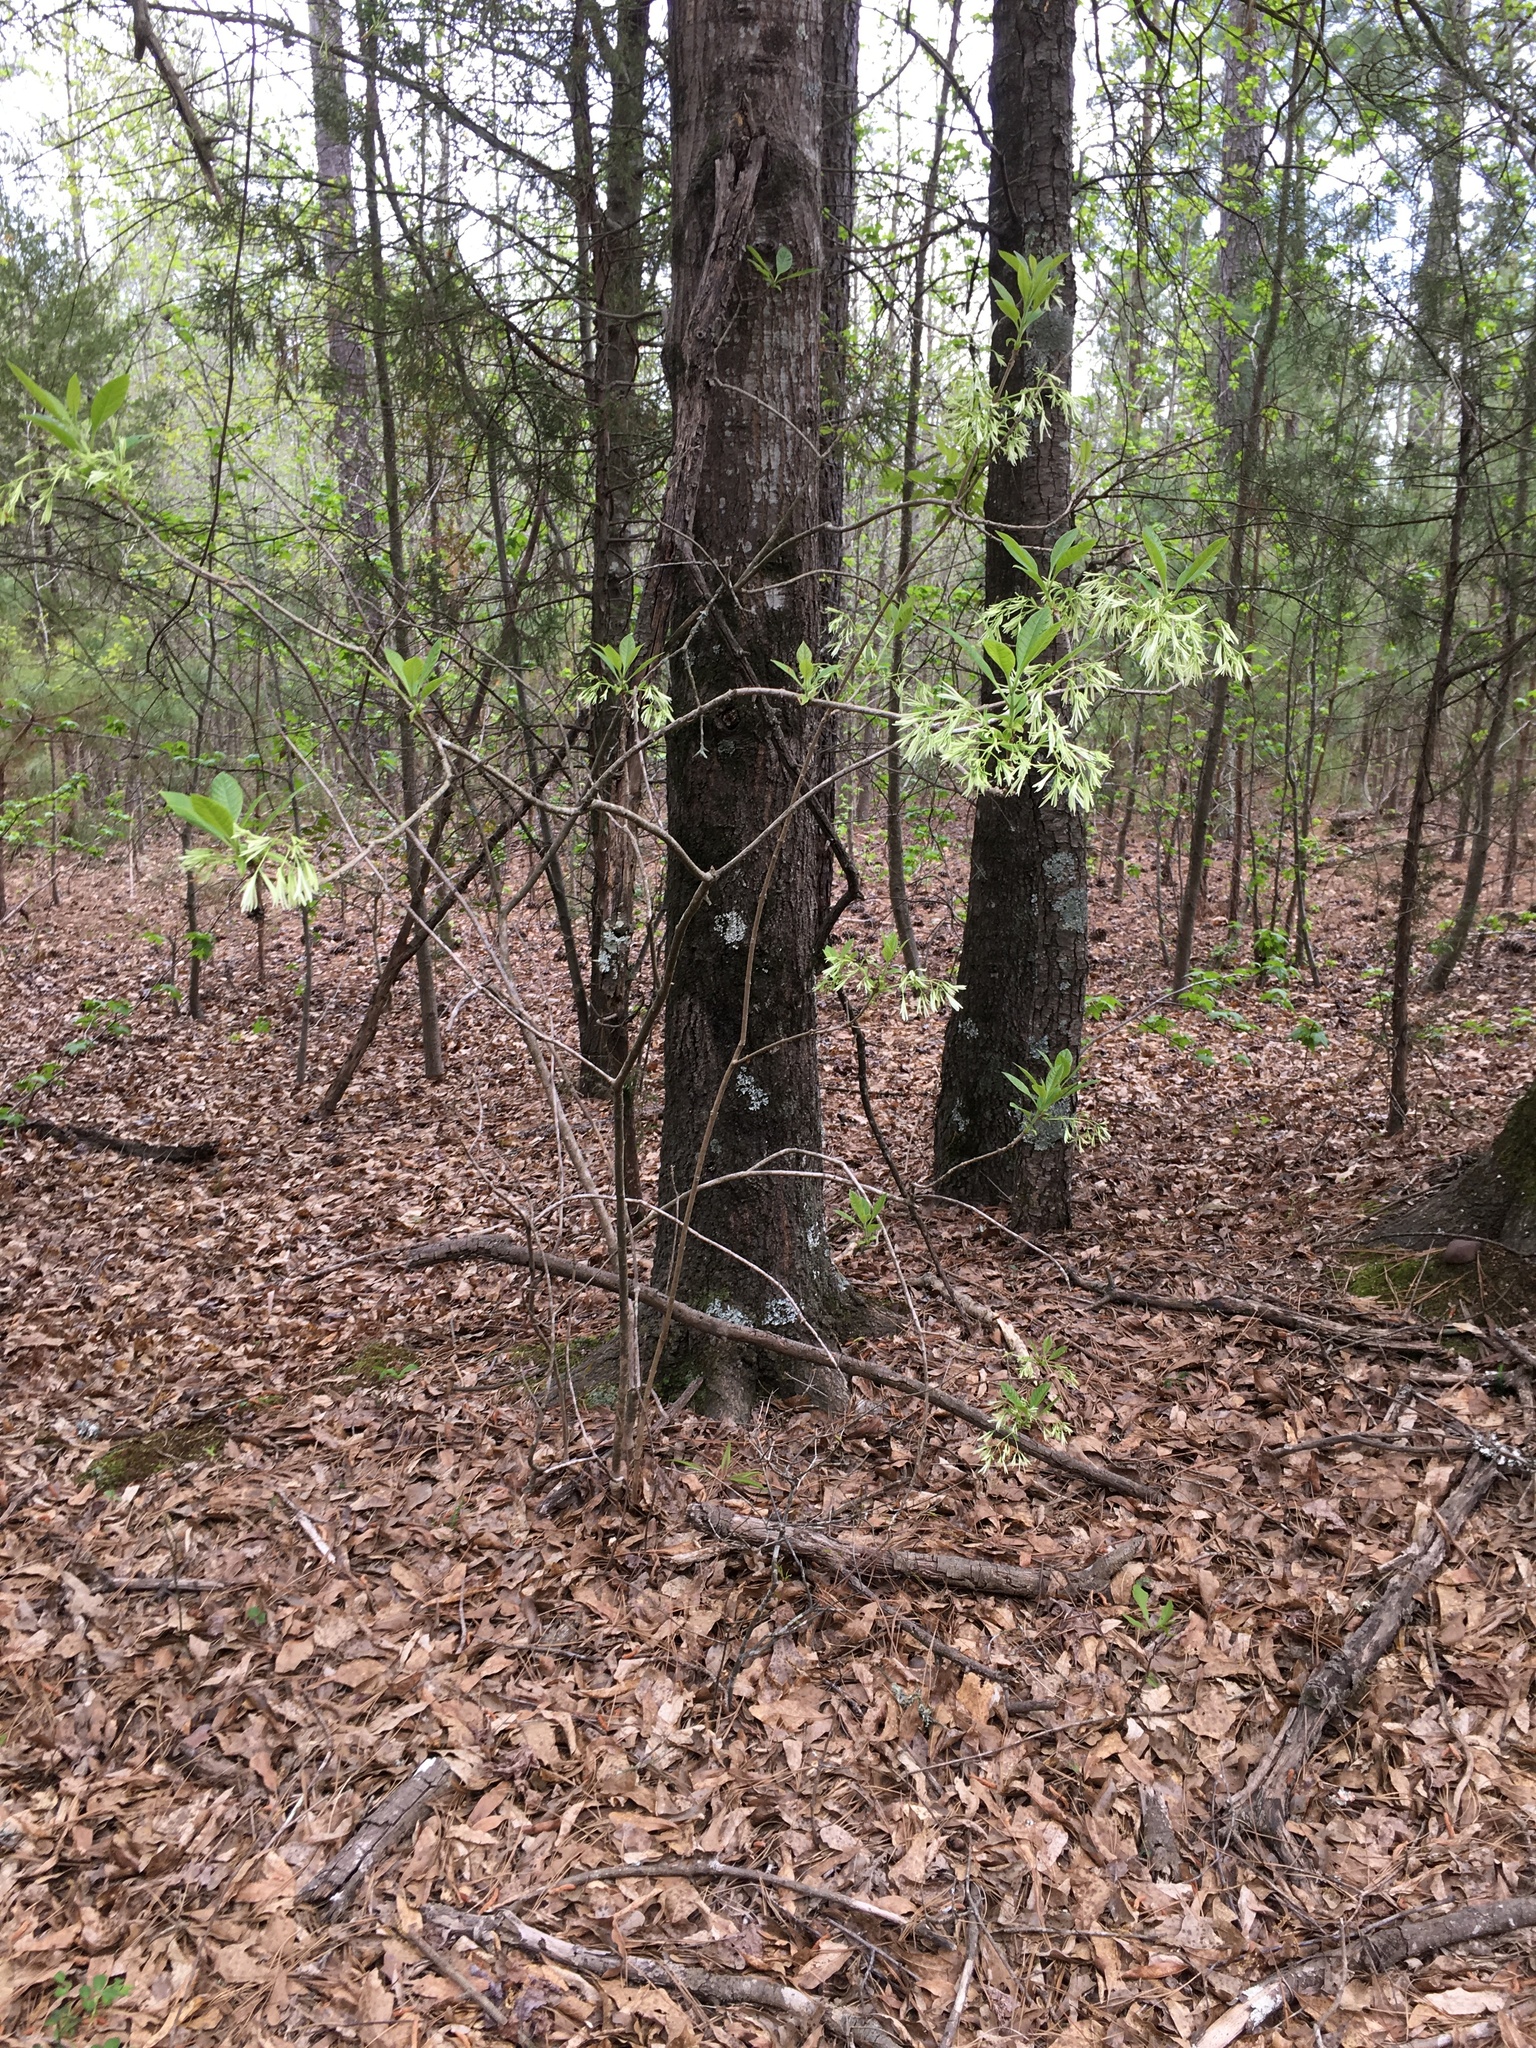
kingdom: Plantae
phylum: Tracheophyta
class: Magnoliopsida
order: Lamiales
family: Oleaceae
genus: Chionanthus
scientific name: Chionanthus virginicus
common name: American fringetree
